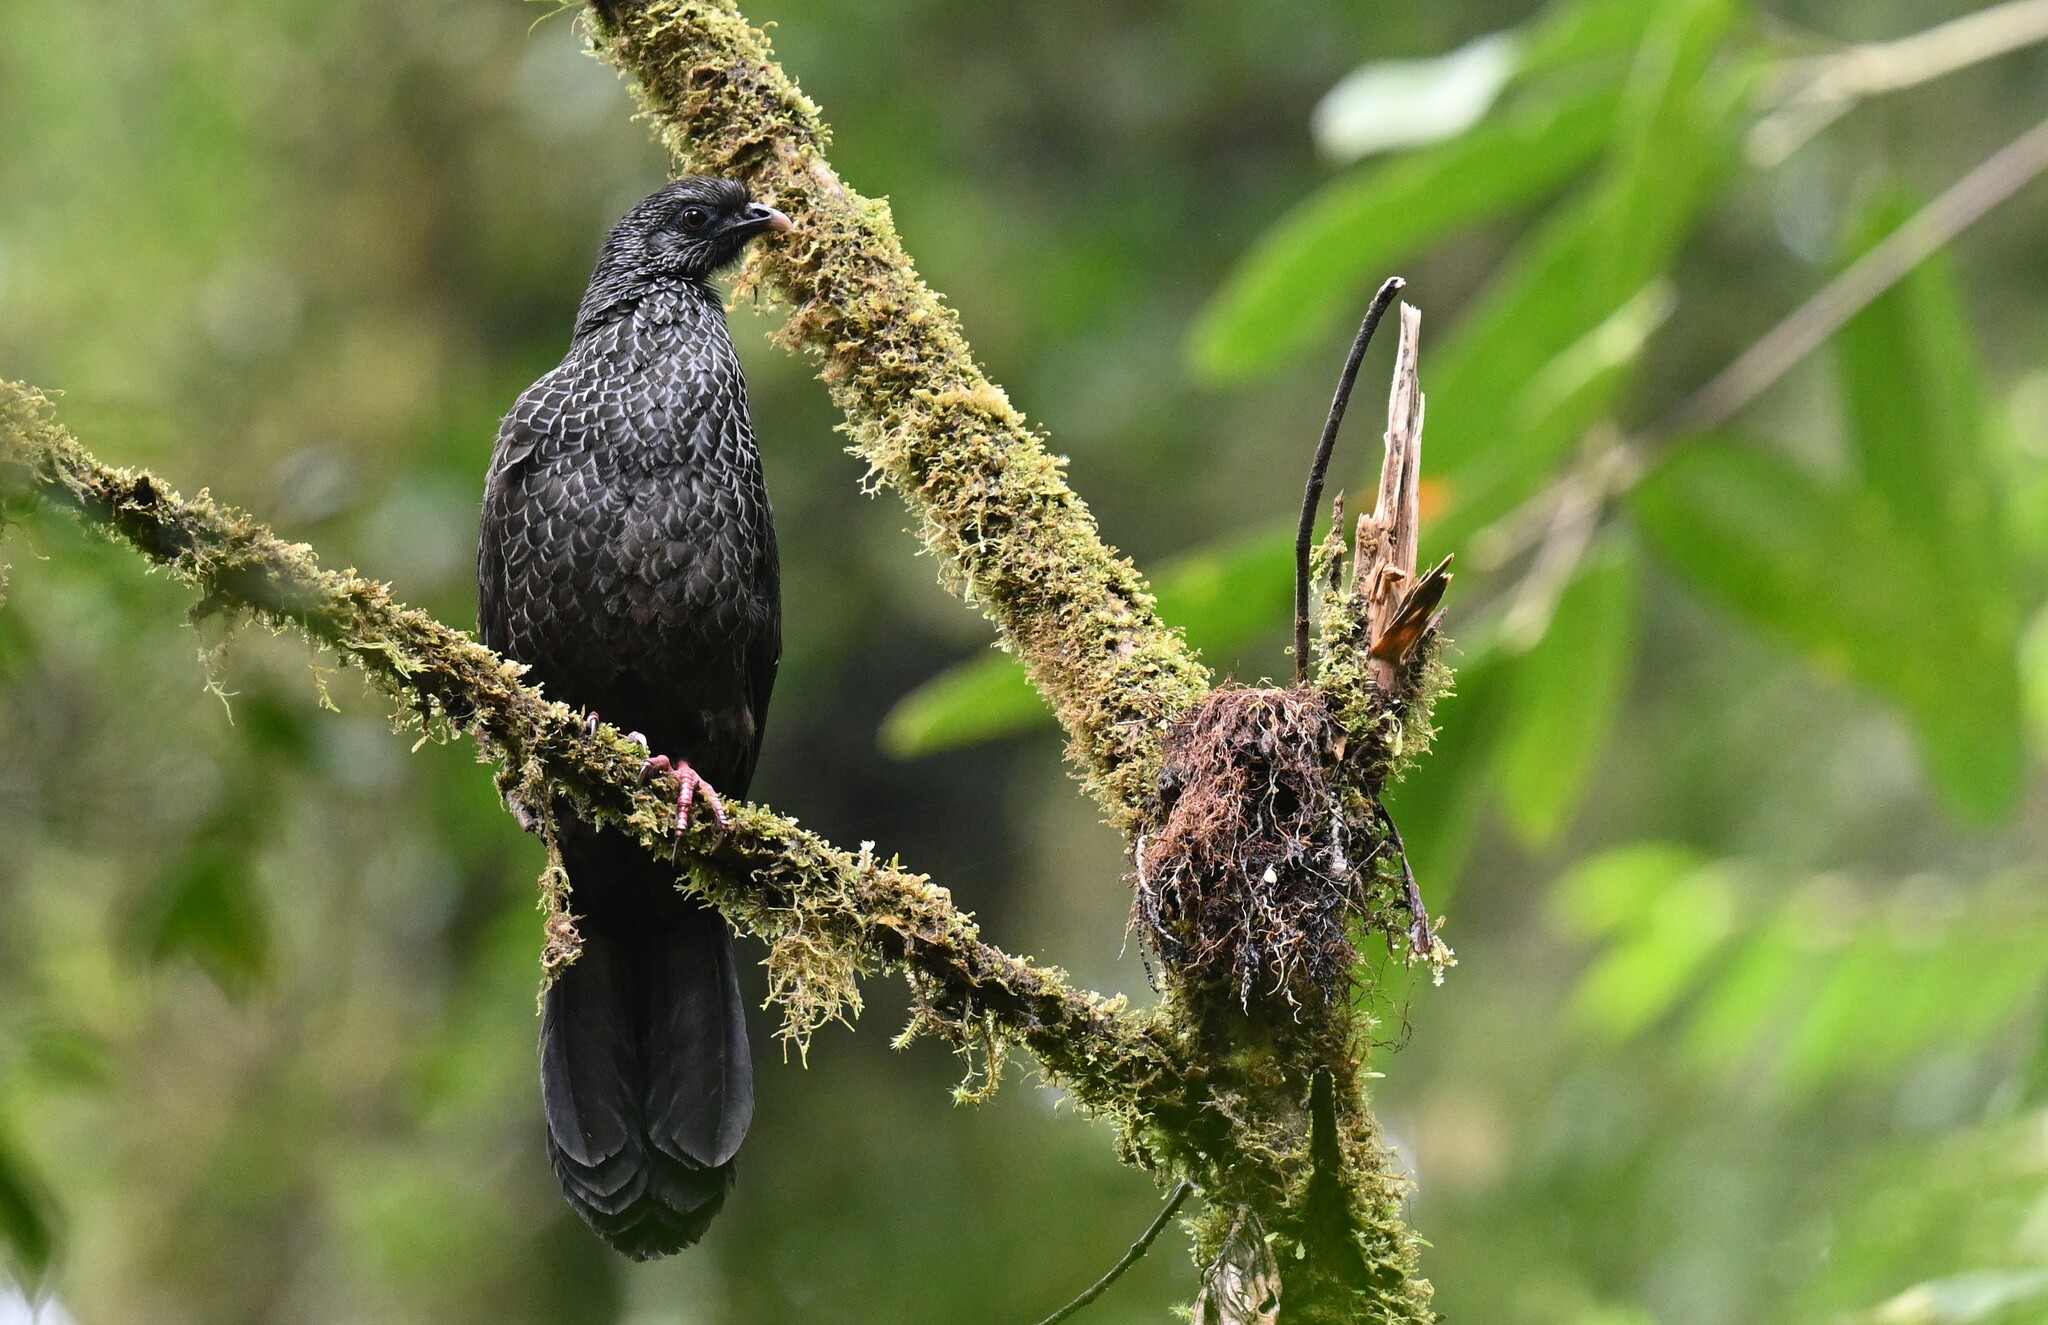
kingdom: Animalia
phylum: Chordata
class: Aves
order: Galliformes
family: Cracidae
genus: Penelope
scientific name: Penelope montagnii
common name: Andean guan
